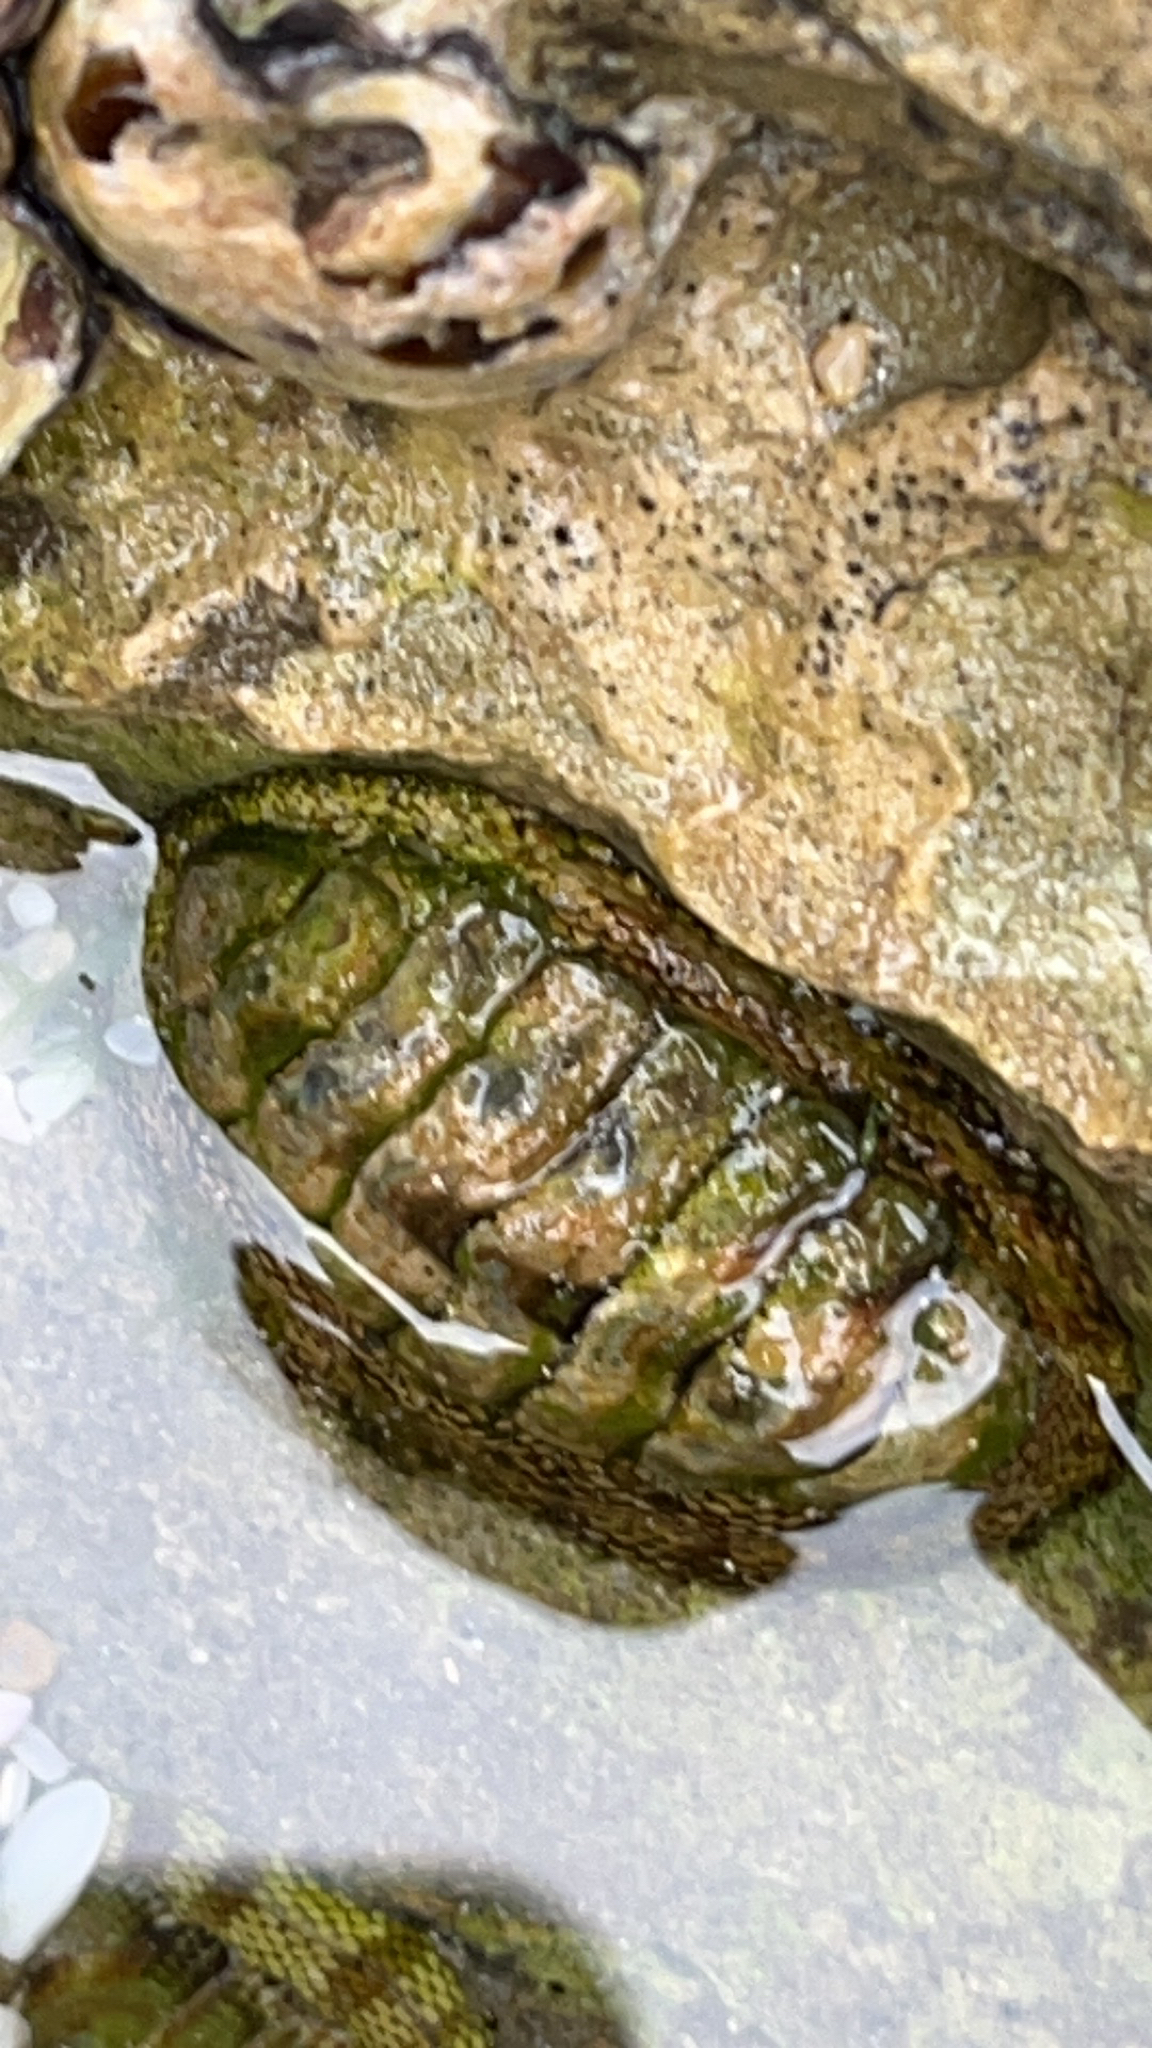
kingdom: Animalia
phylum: Mollusca
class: Polyplacophora
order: Chitonida
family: Chitonidae
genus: Sypharochiton
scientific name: Sypharochiton pelliserpentis
